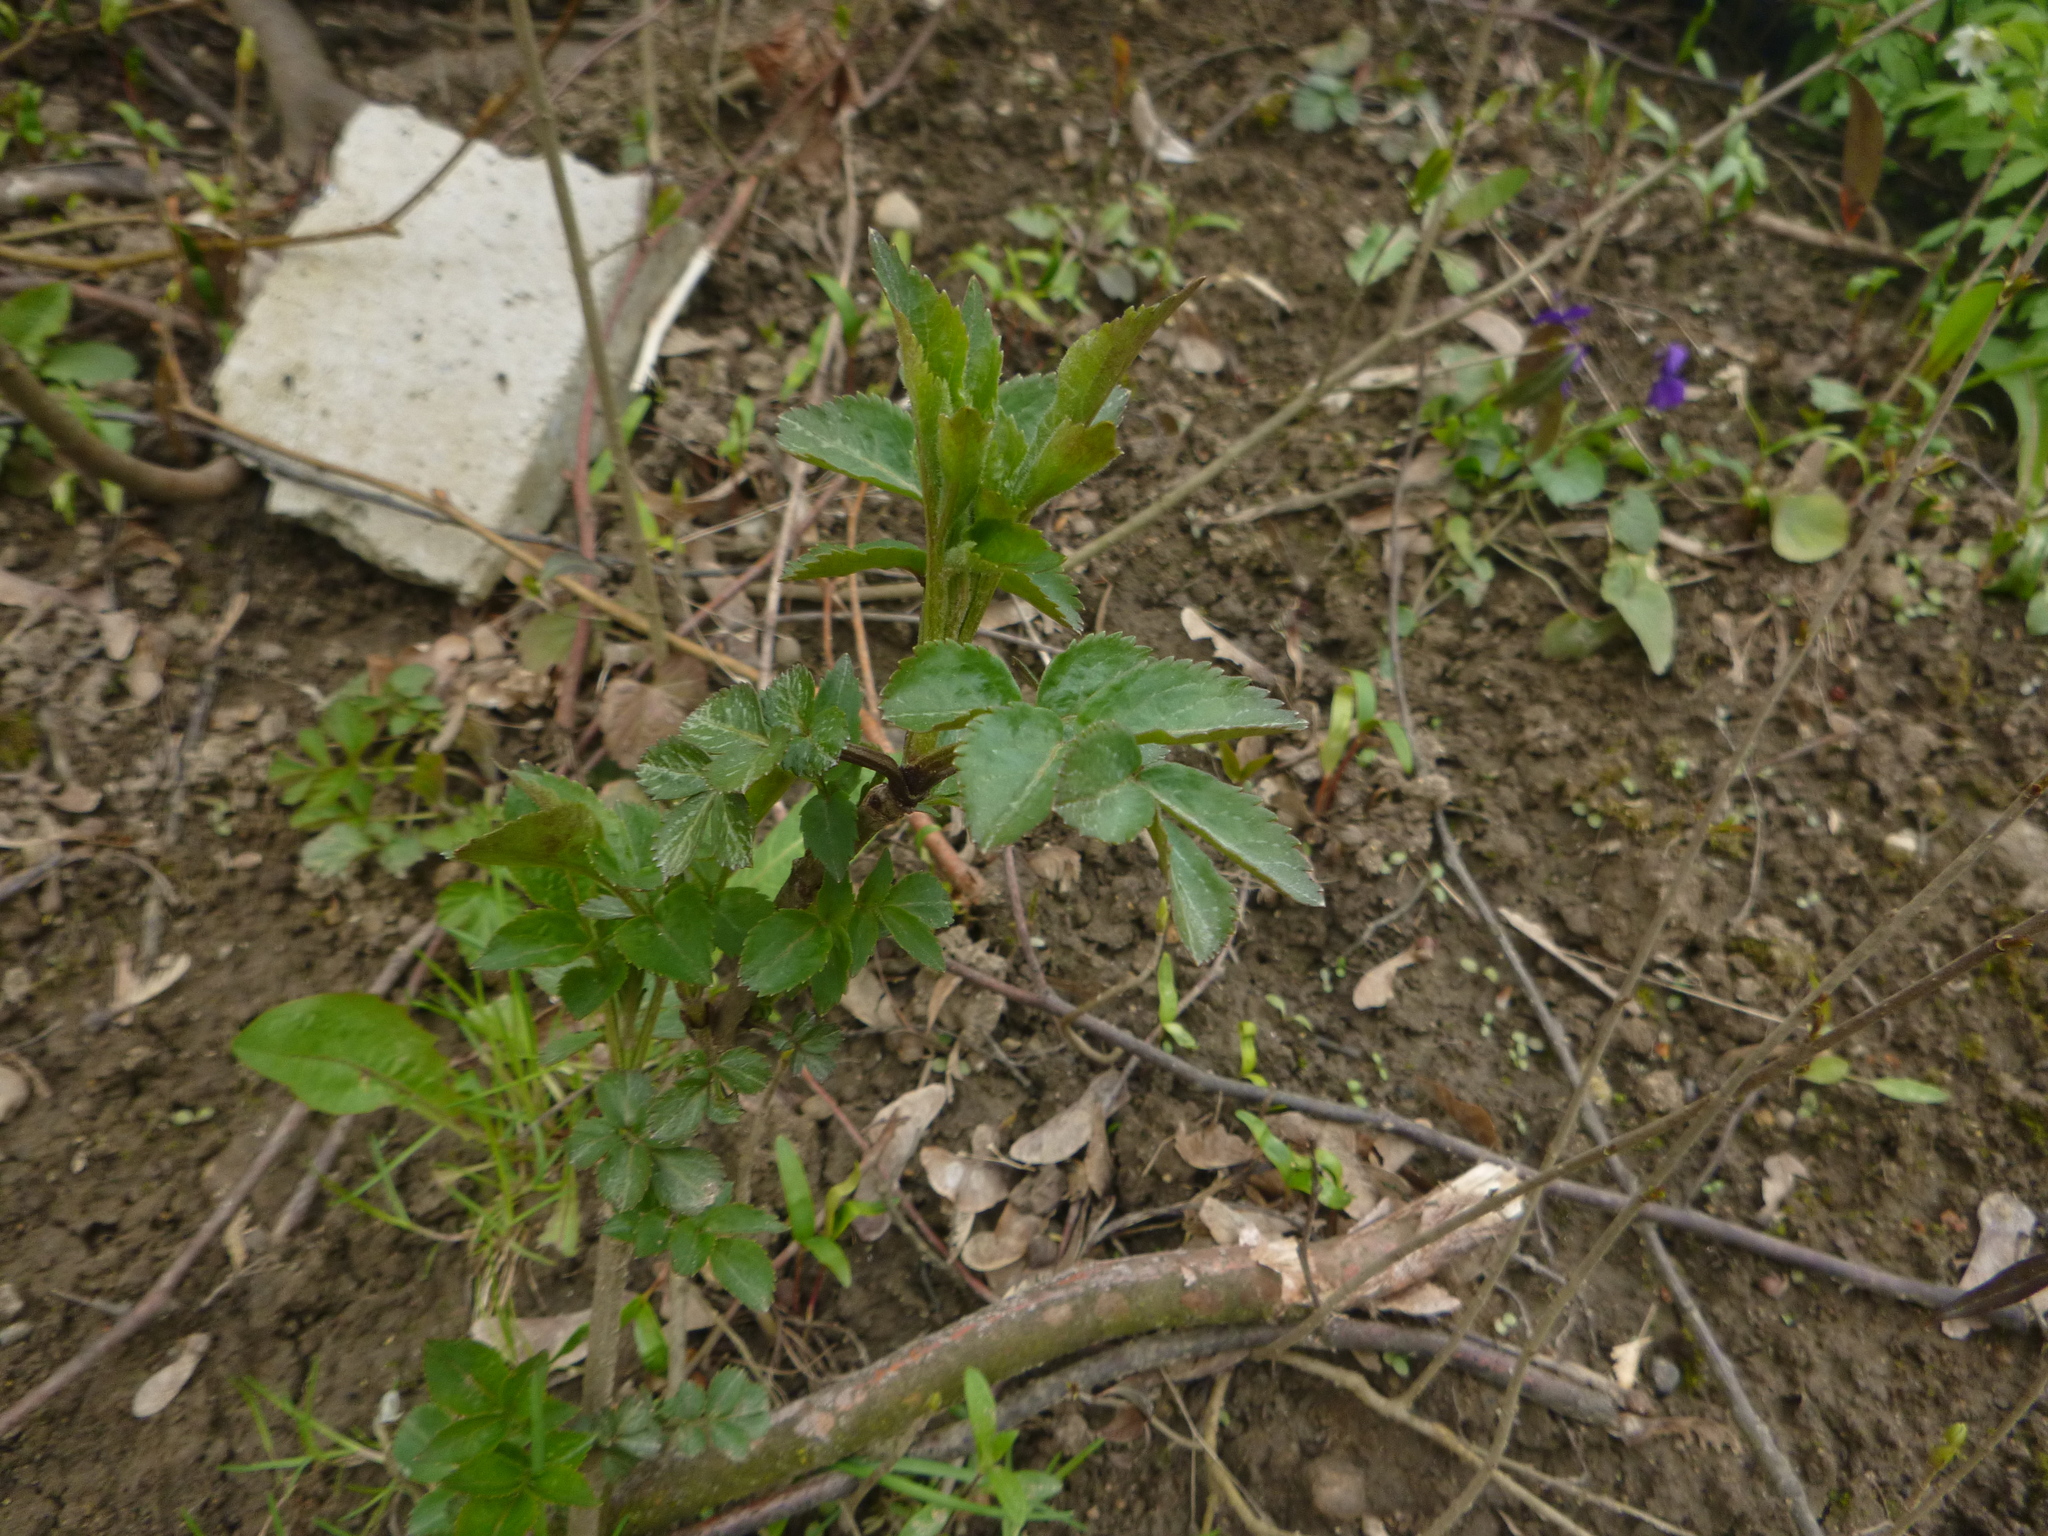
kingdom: Plantae
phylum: Tracheophyta
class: Magnoliopsida
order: Dipsacales
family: Viburnaceae
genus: Sambucus
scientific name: Sambucus nigra
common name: Elder
